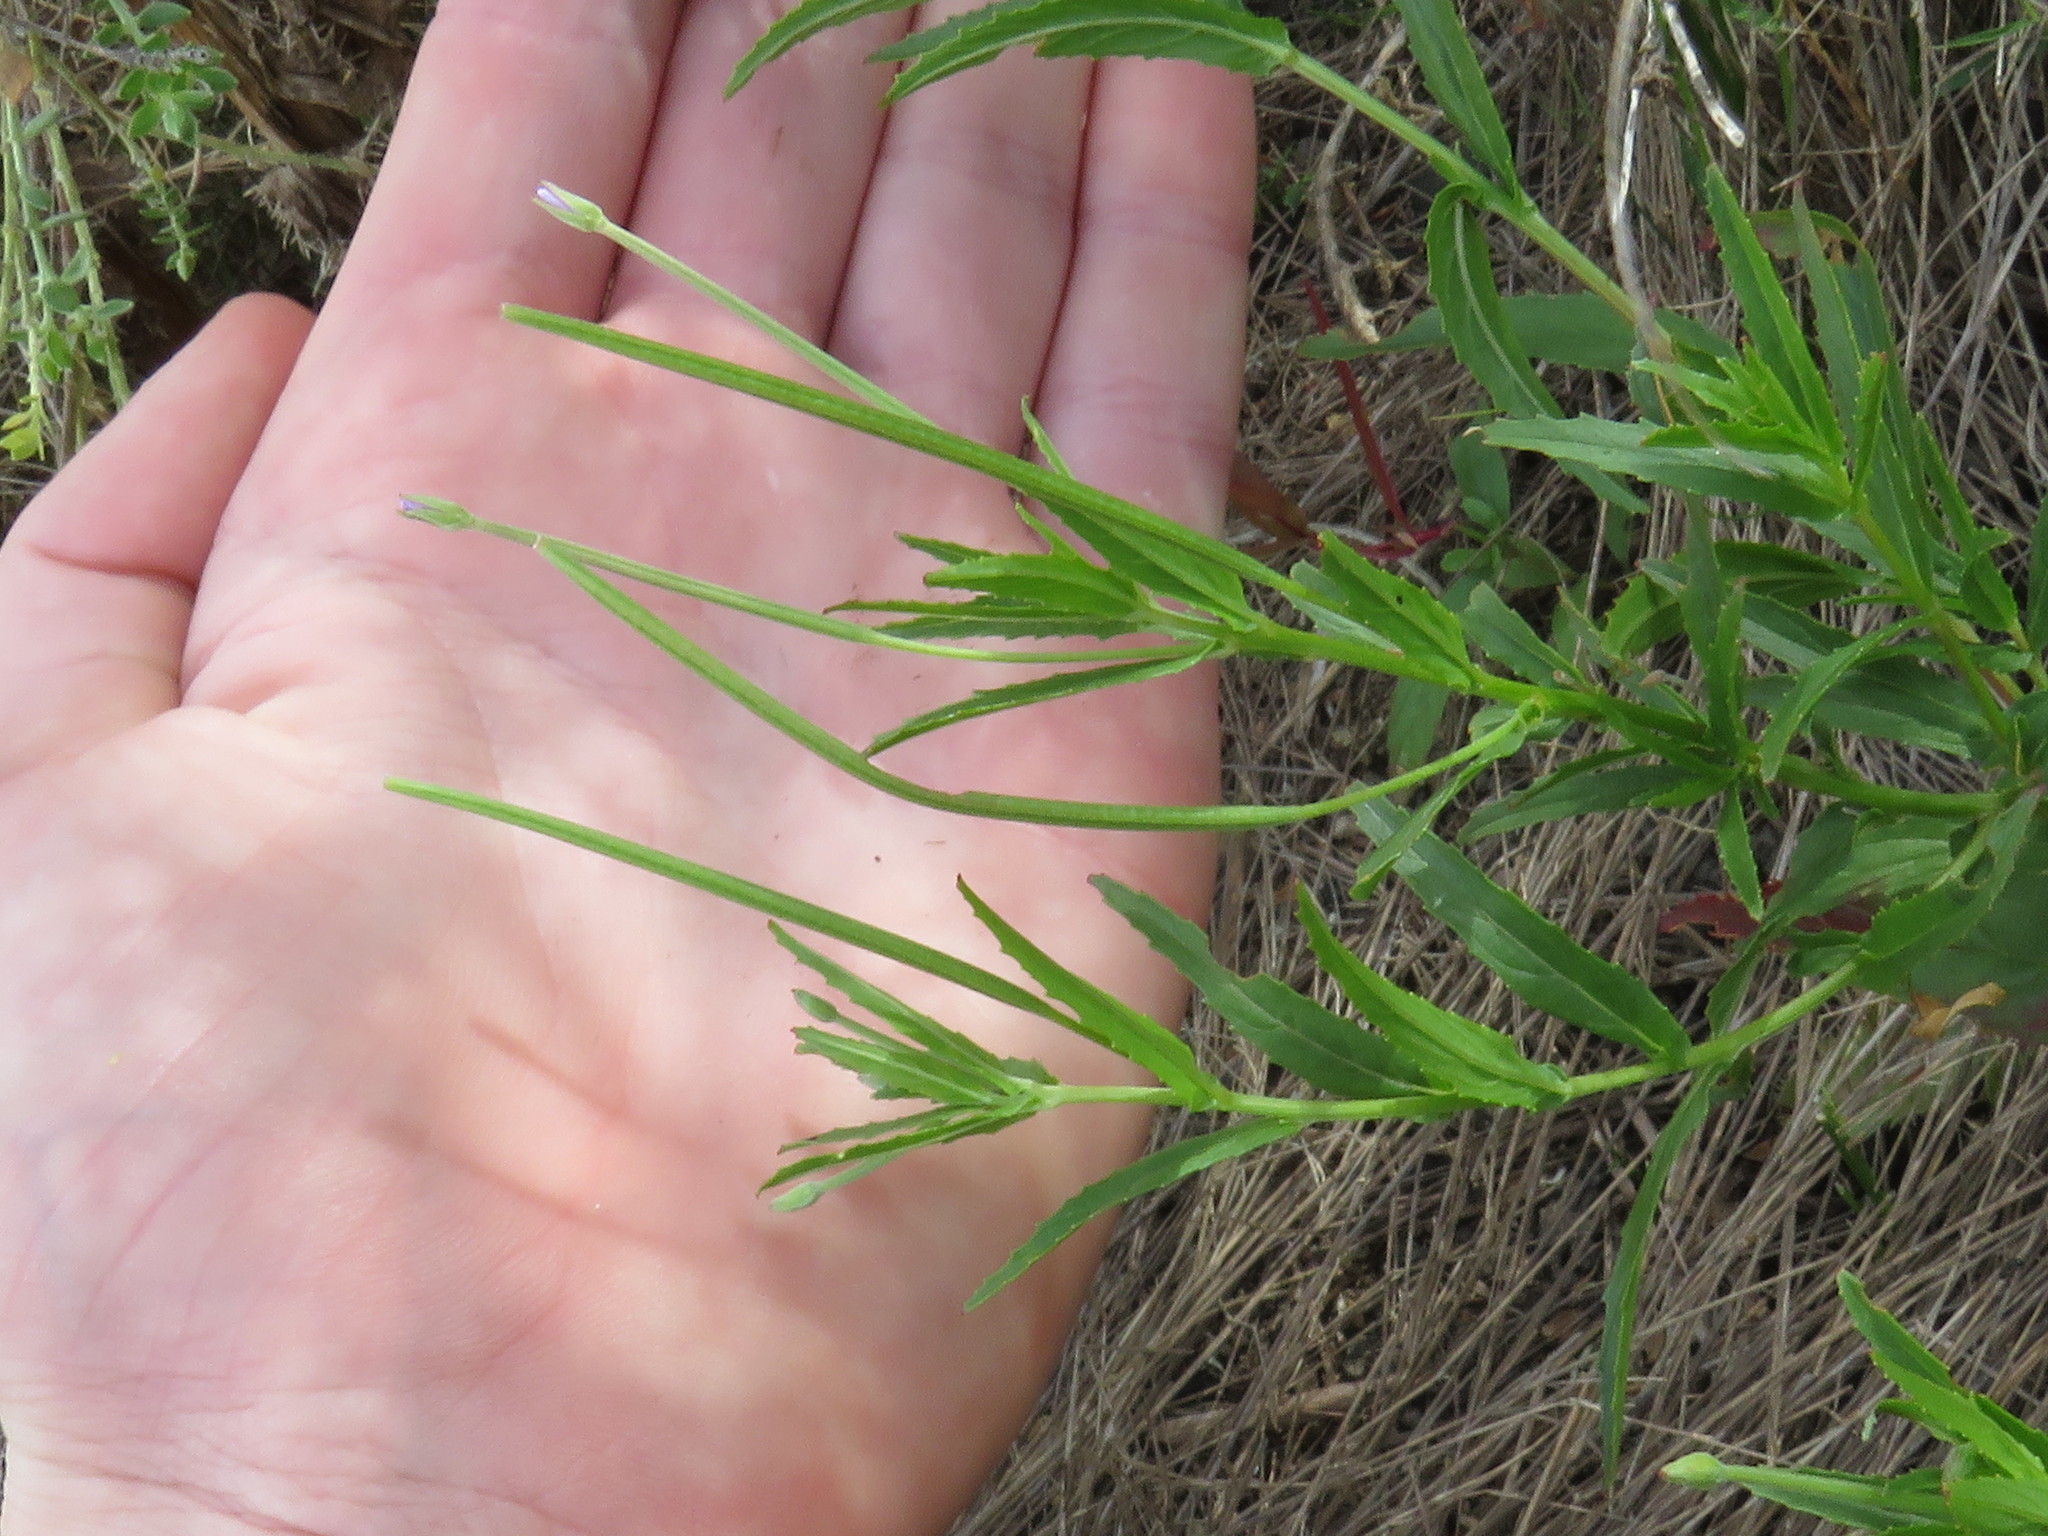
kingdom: Plantae
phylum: Tracheophyta
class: Magnoliopsida
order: Myrtales
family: Onagraceae
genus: Epilobium
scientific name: Epilobium tetragonum
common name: Square-stemmed willowherb
